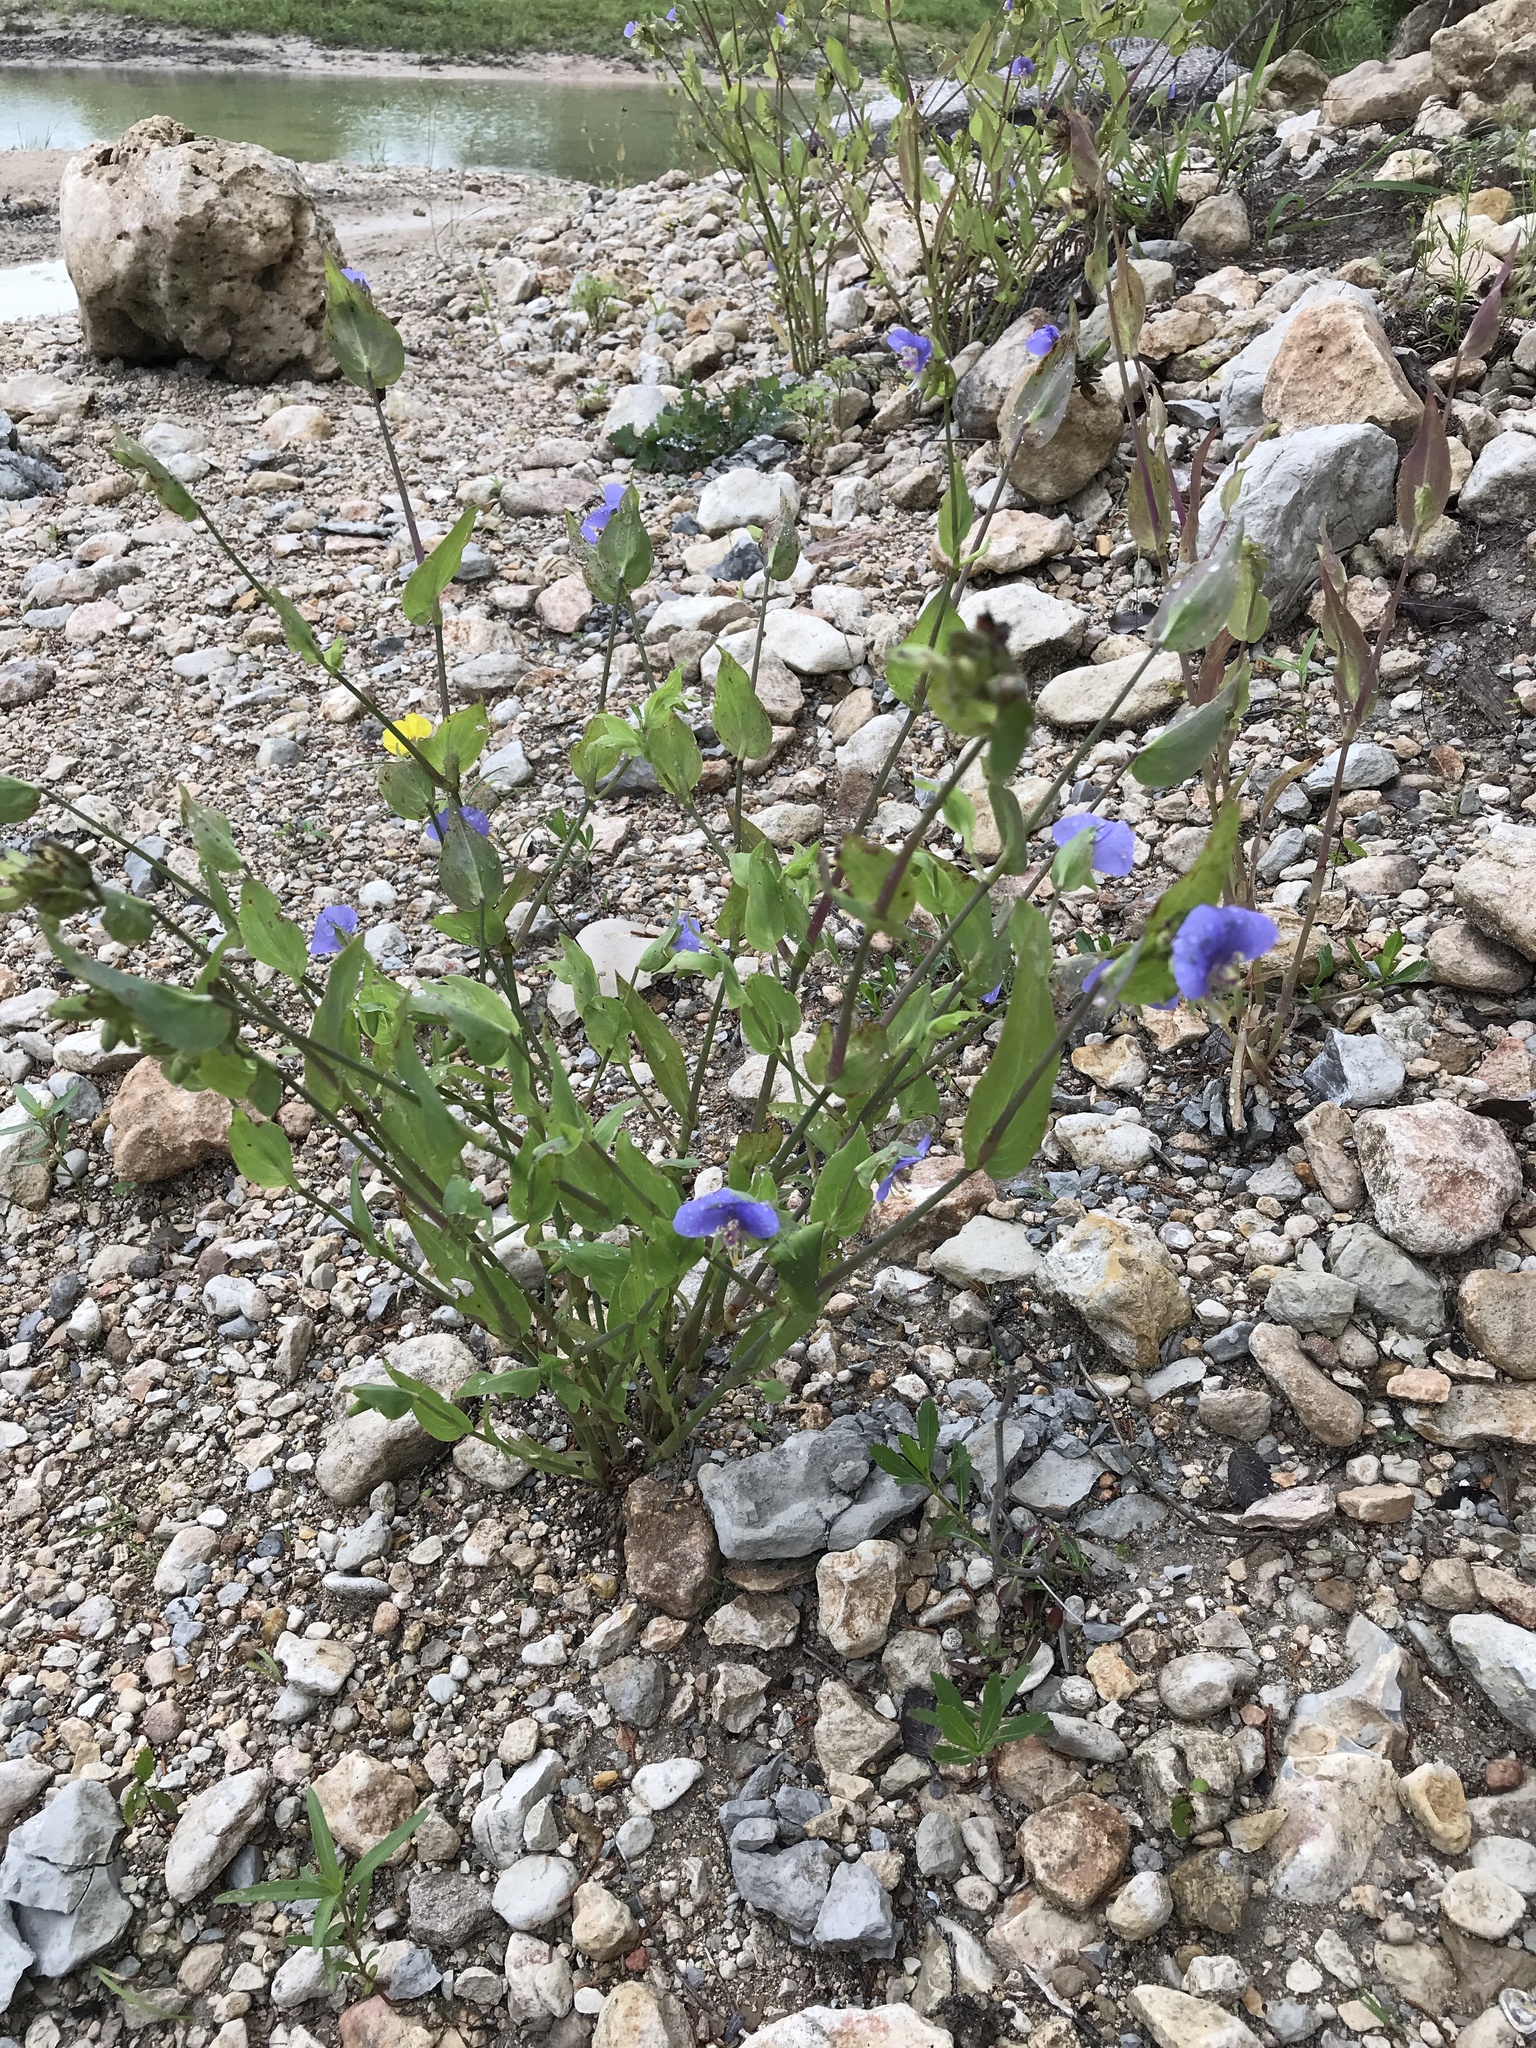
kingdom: Plantae
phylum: Tracheophyta
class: Liliopsida
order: Commelinales
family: Commelinaceae
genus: Tinantia
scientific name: Tinantia anomala
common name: False dayflower
